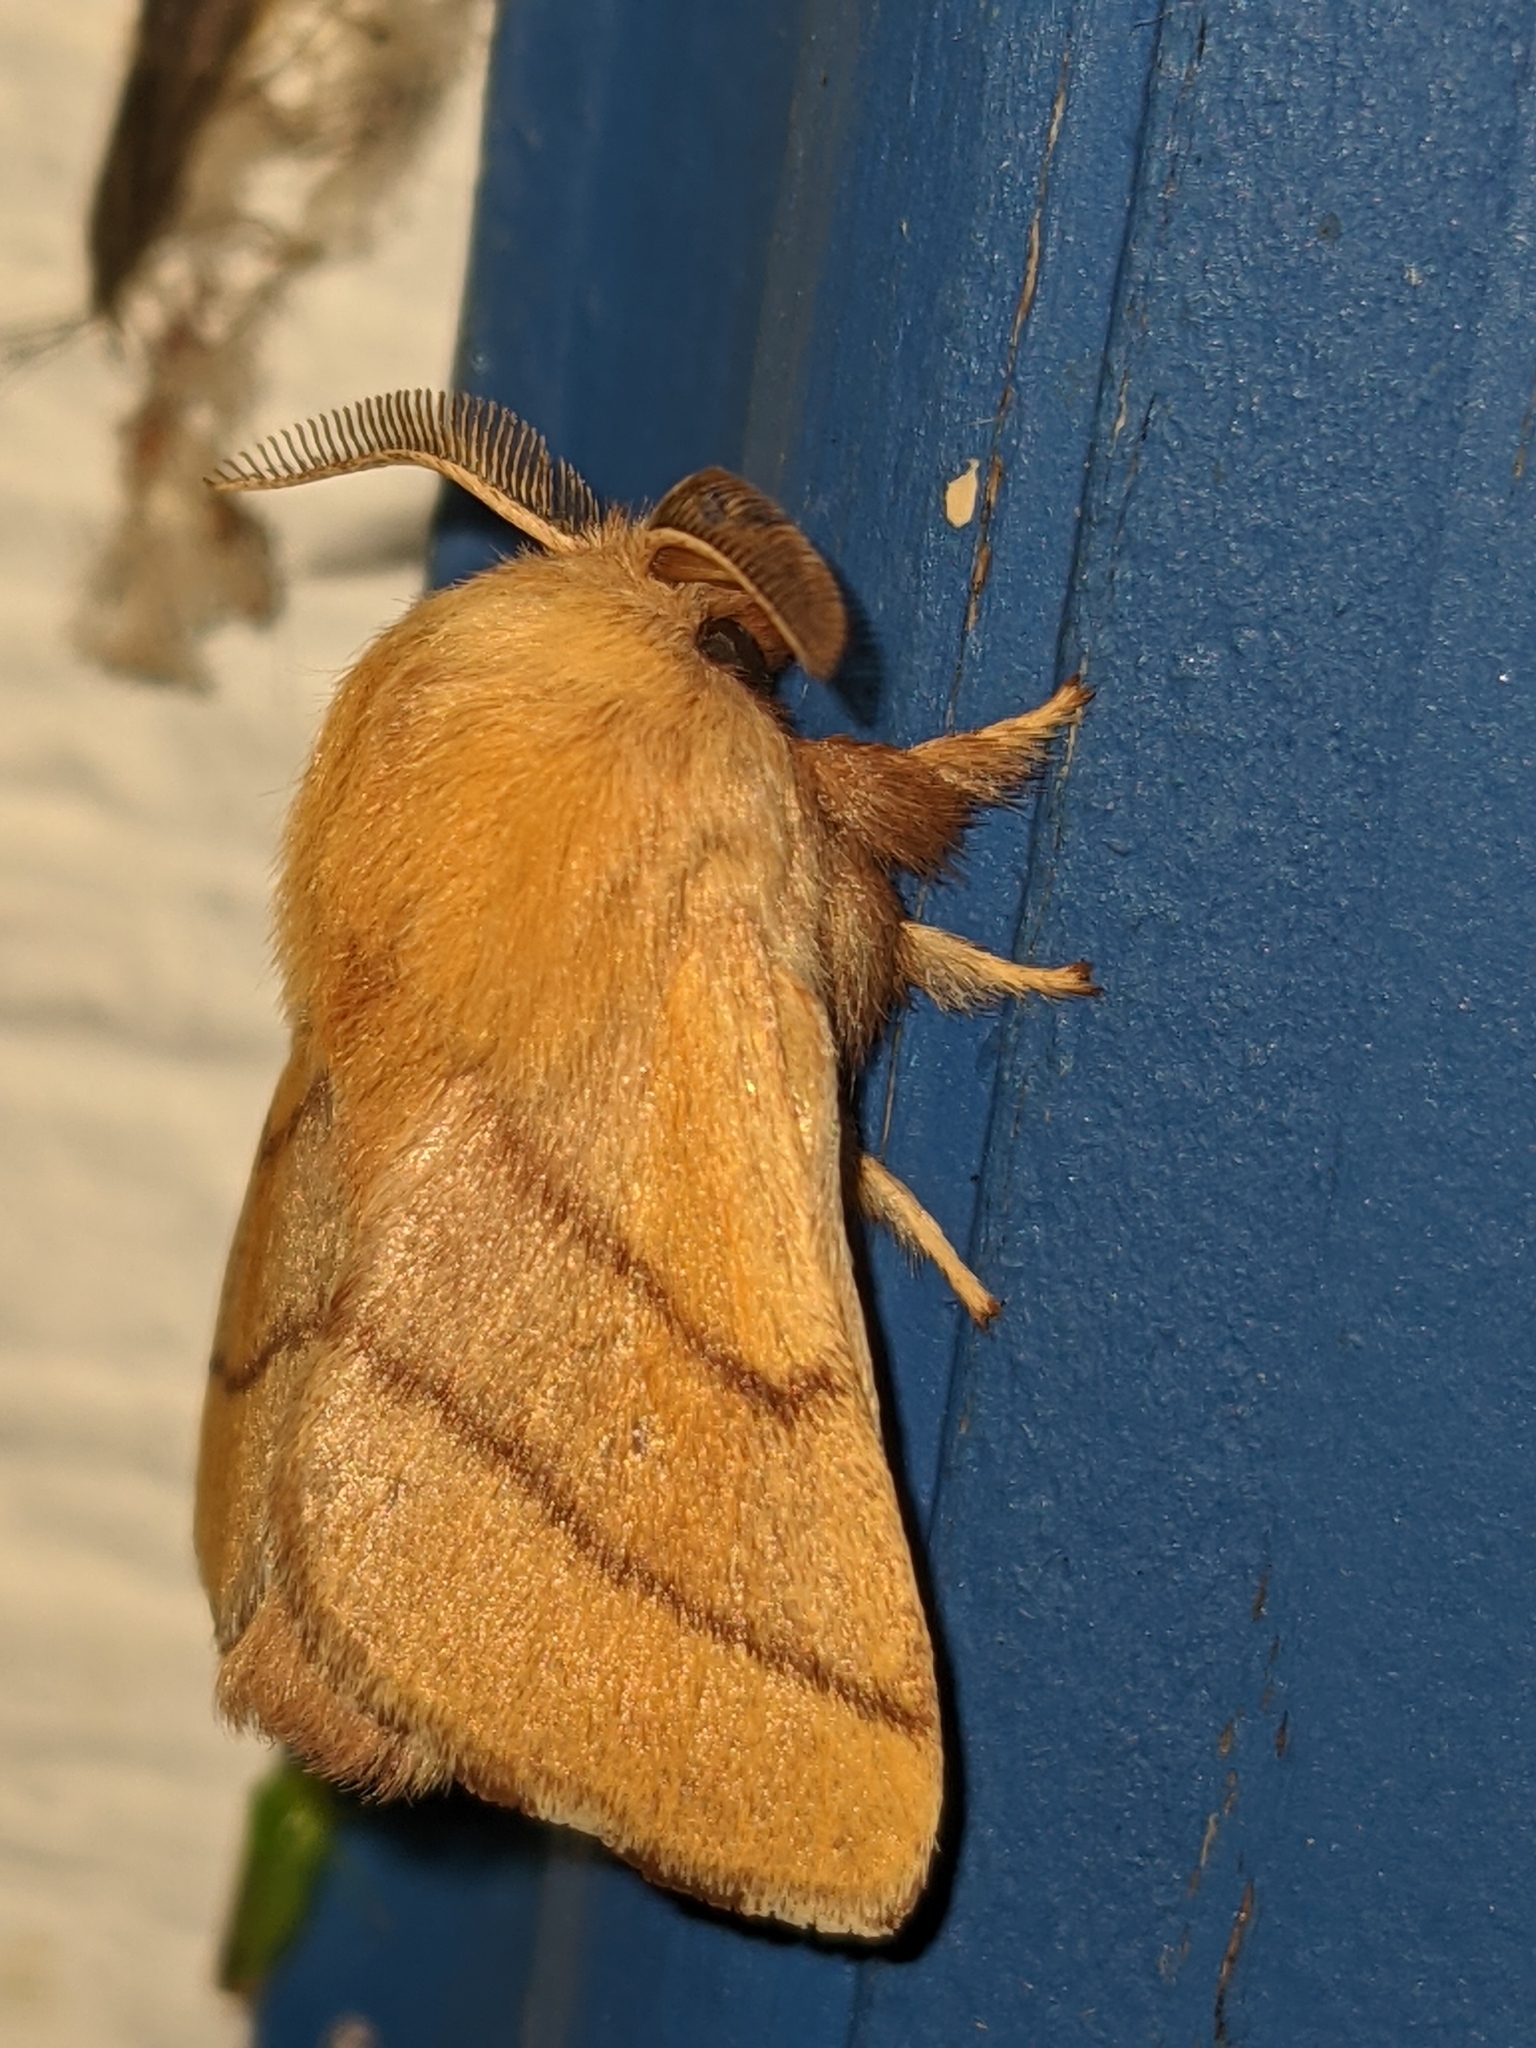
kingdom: Animalia
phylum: Arthropoda
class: Insecta
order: Lepidoptera
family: Lasiocampidae
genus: Malacosoma
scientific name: Malacosoma disstria
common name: Forest tent caterpillar
